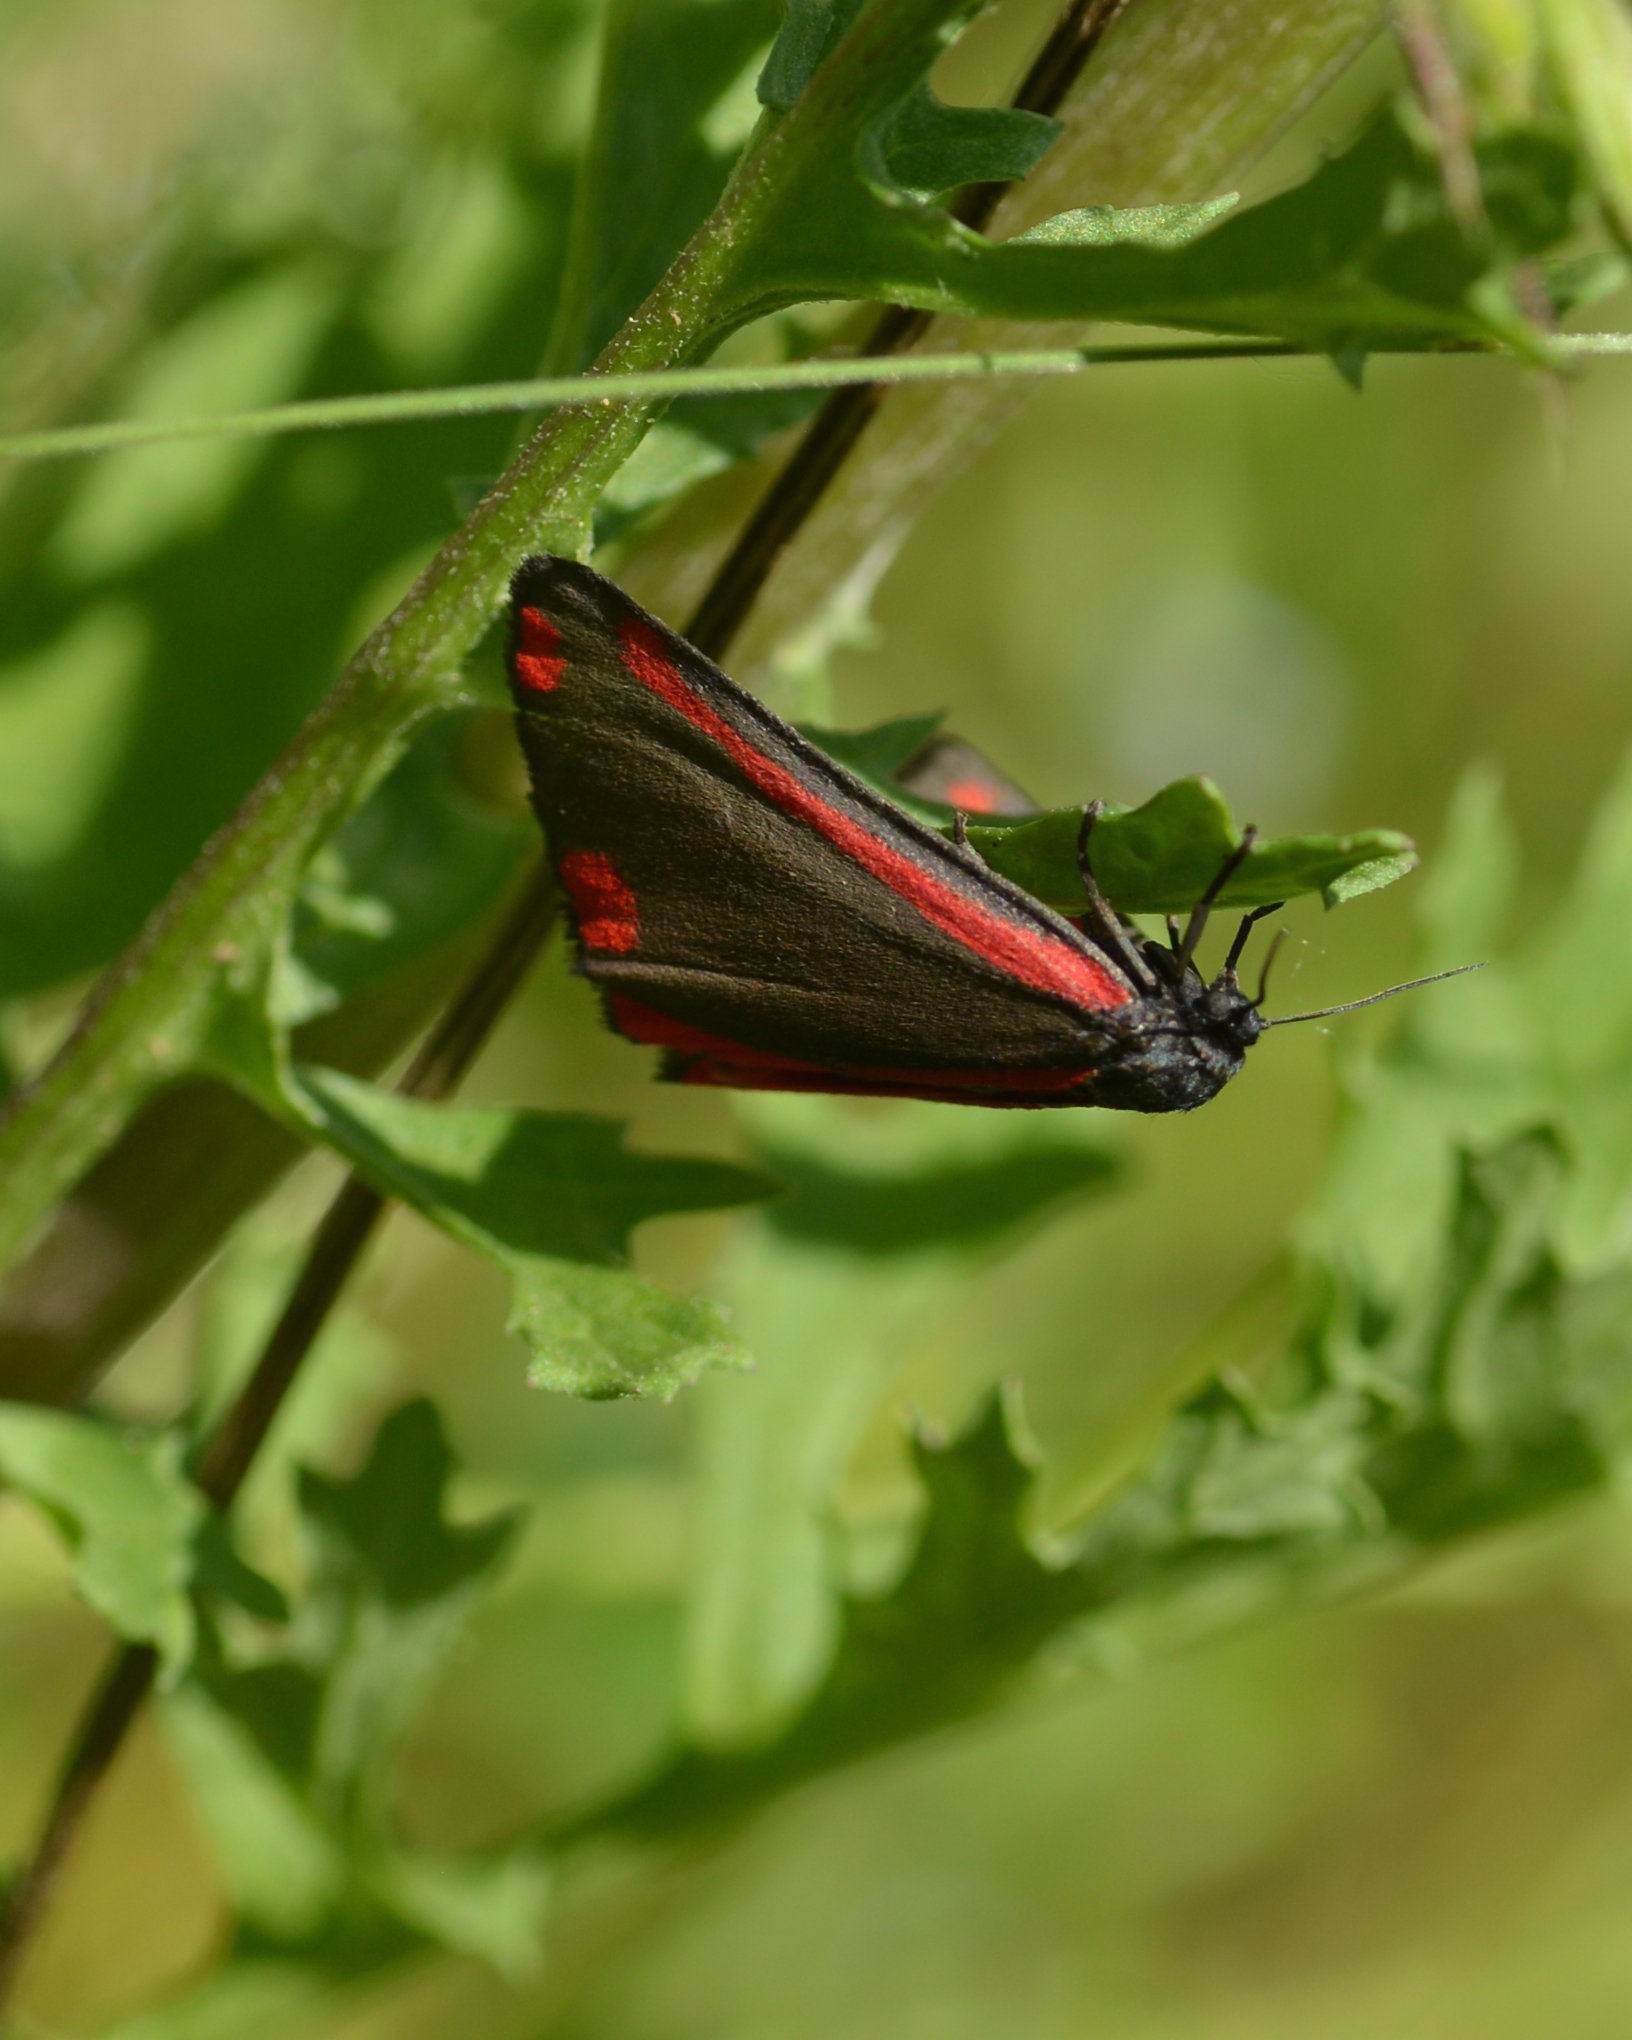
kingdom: Animalia
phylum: Arthropoda
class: Insecta
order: Lepidoptera
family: Erebidae
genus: Tyria
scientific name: Tyria jacobaeae
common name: Cinnabar
